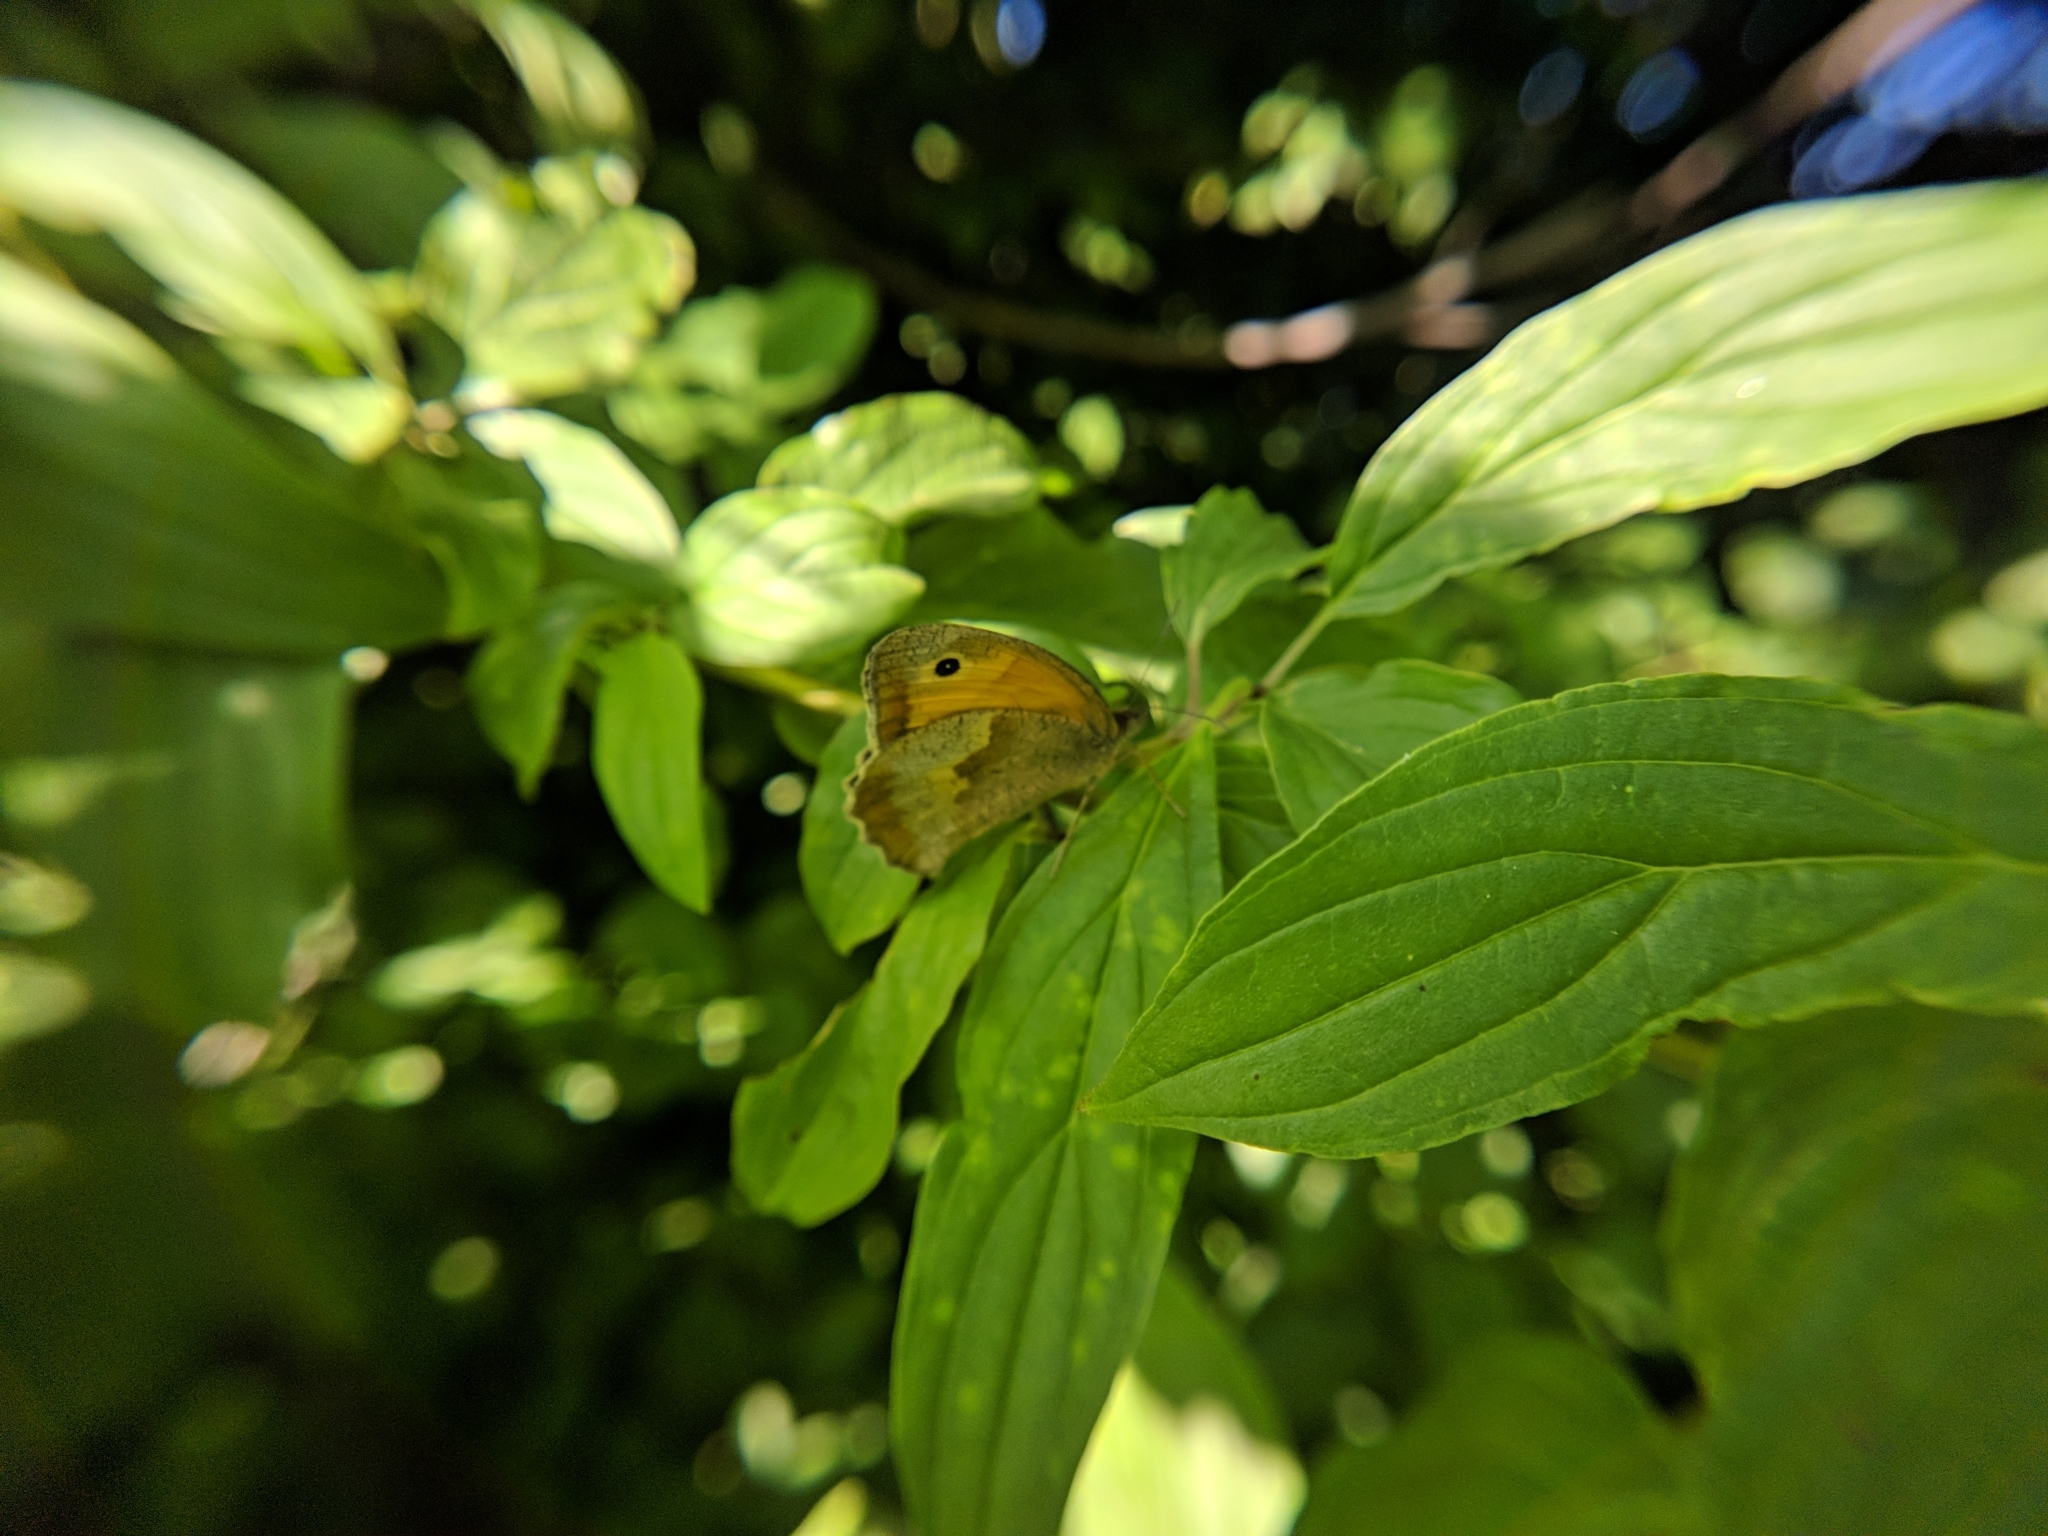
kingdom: Animalia
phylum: Arthropoda
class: Insecta
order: Lepidoptera
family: Nymphalidae
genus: Maniola
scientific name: Maniola jurtina
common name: Meadow brown
